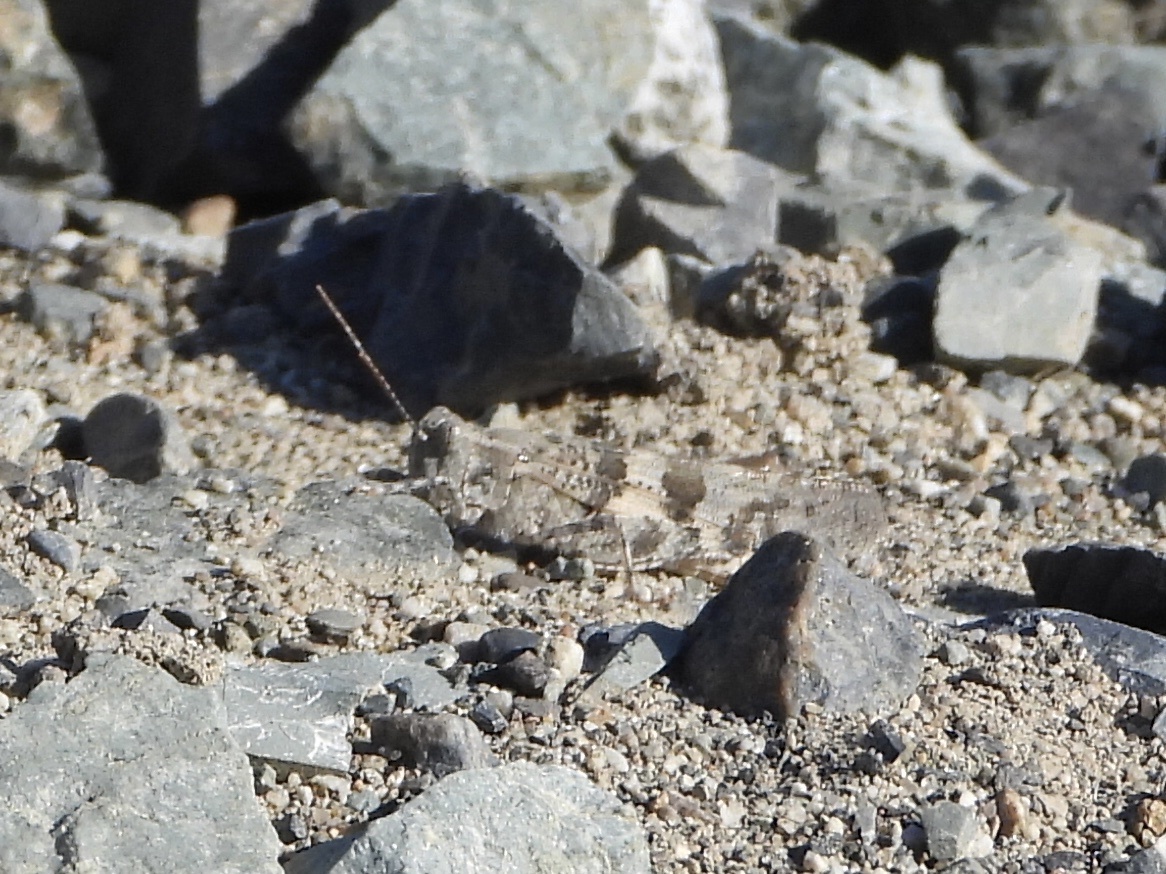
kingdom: Animalia
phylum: Arthropoda
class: Insecta
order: Orthoptera
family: Acrididae
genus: Trimerotropis
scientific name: Trimerotropis pallidipennis
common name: Pallid-winged grasshopper
